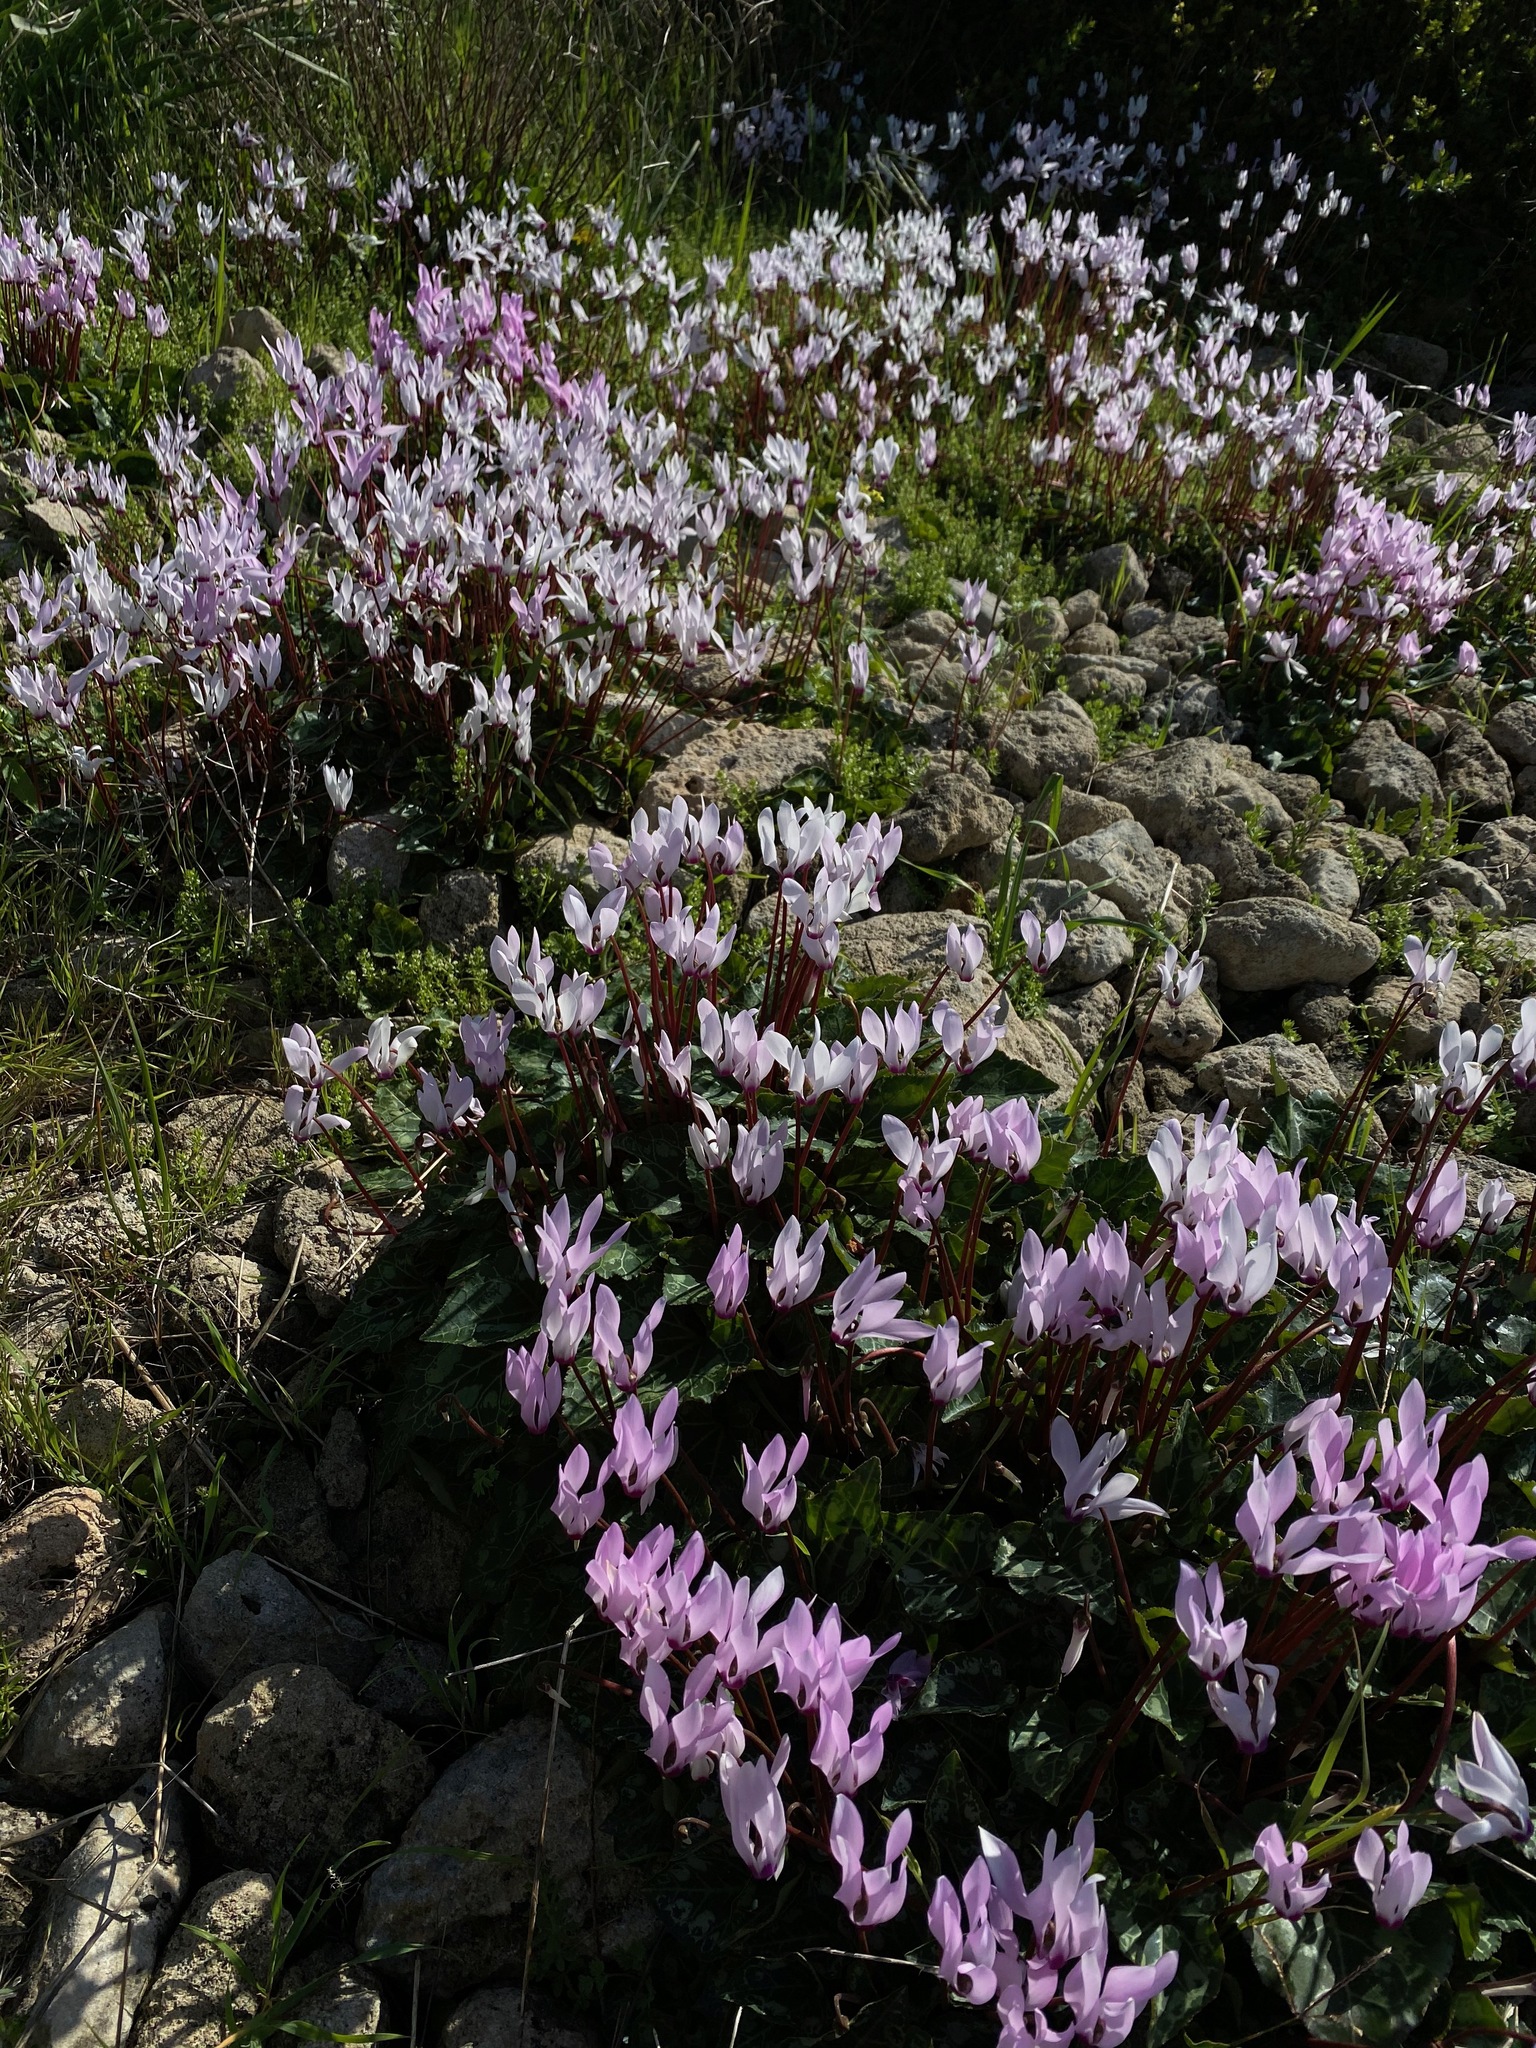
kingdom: Plantae
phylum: Tracheophyta
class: Magnoliopsida
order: Ericales
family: Primulaceae
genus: Cyclamen
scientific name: Cyclamen persicum
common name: Florist's cyclamen
